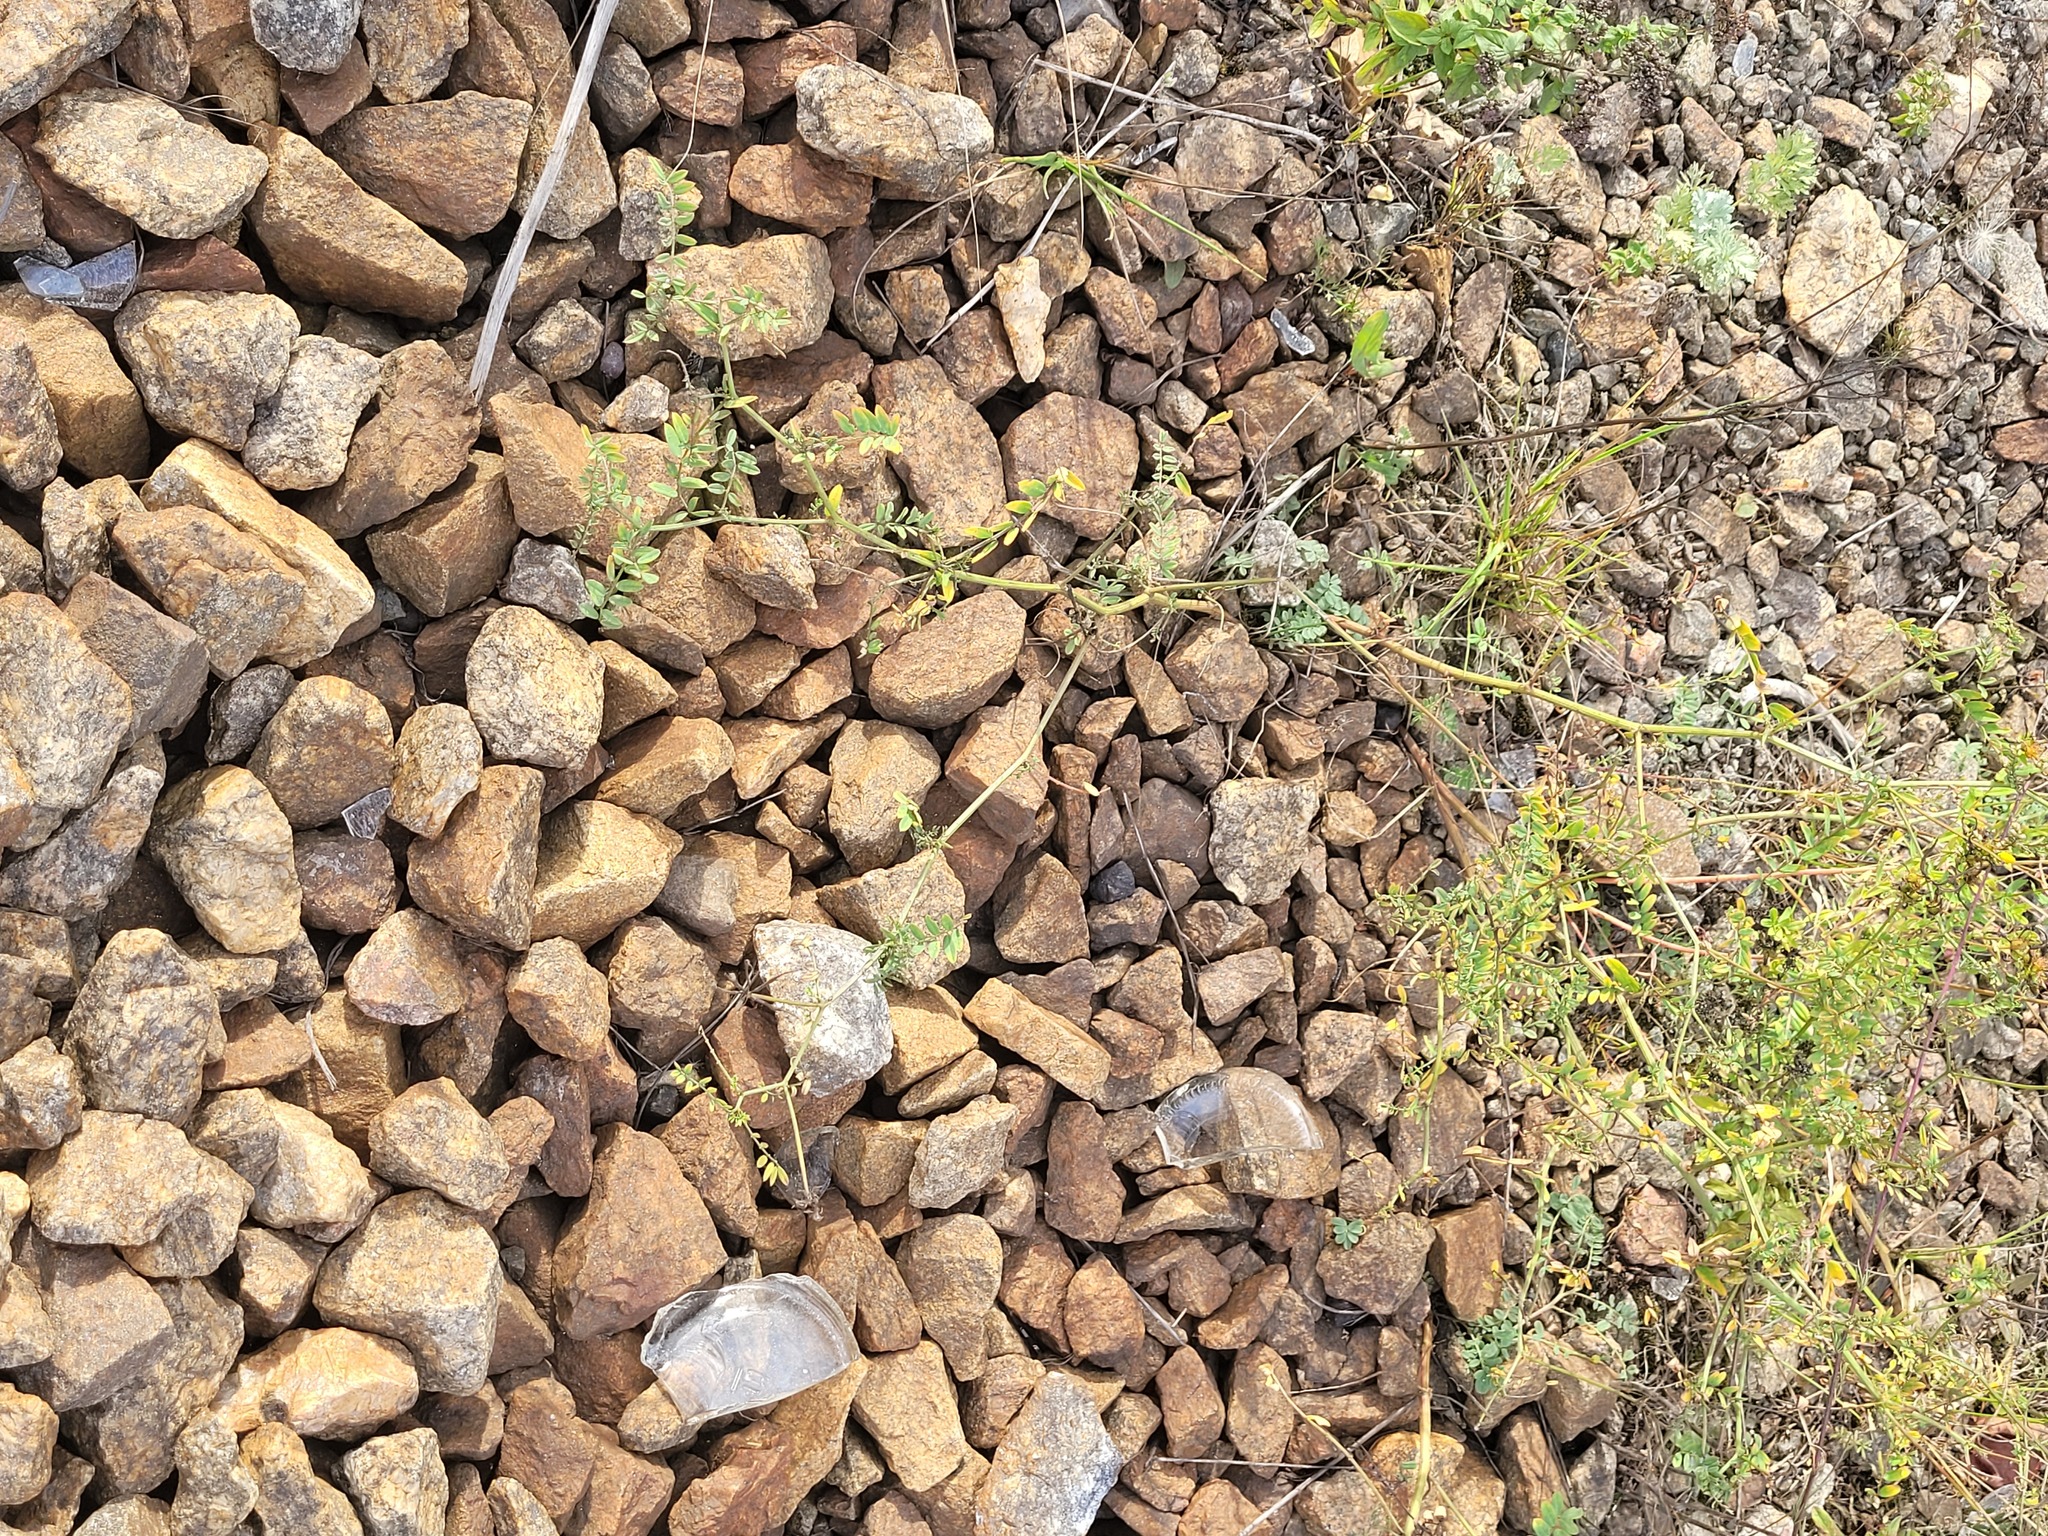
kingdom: Plantae
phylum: Tracheophyta
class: Magnoliopsida
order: Fabales
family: Fabaceae
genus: Coronilla
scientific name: Coronilla varia
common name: Crownvetch
